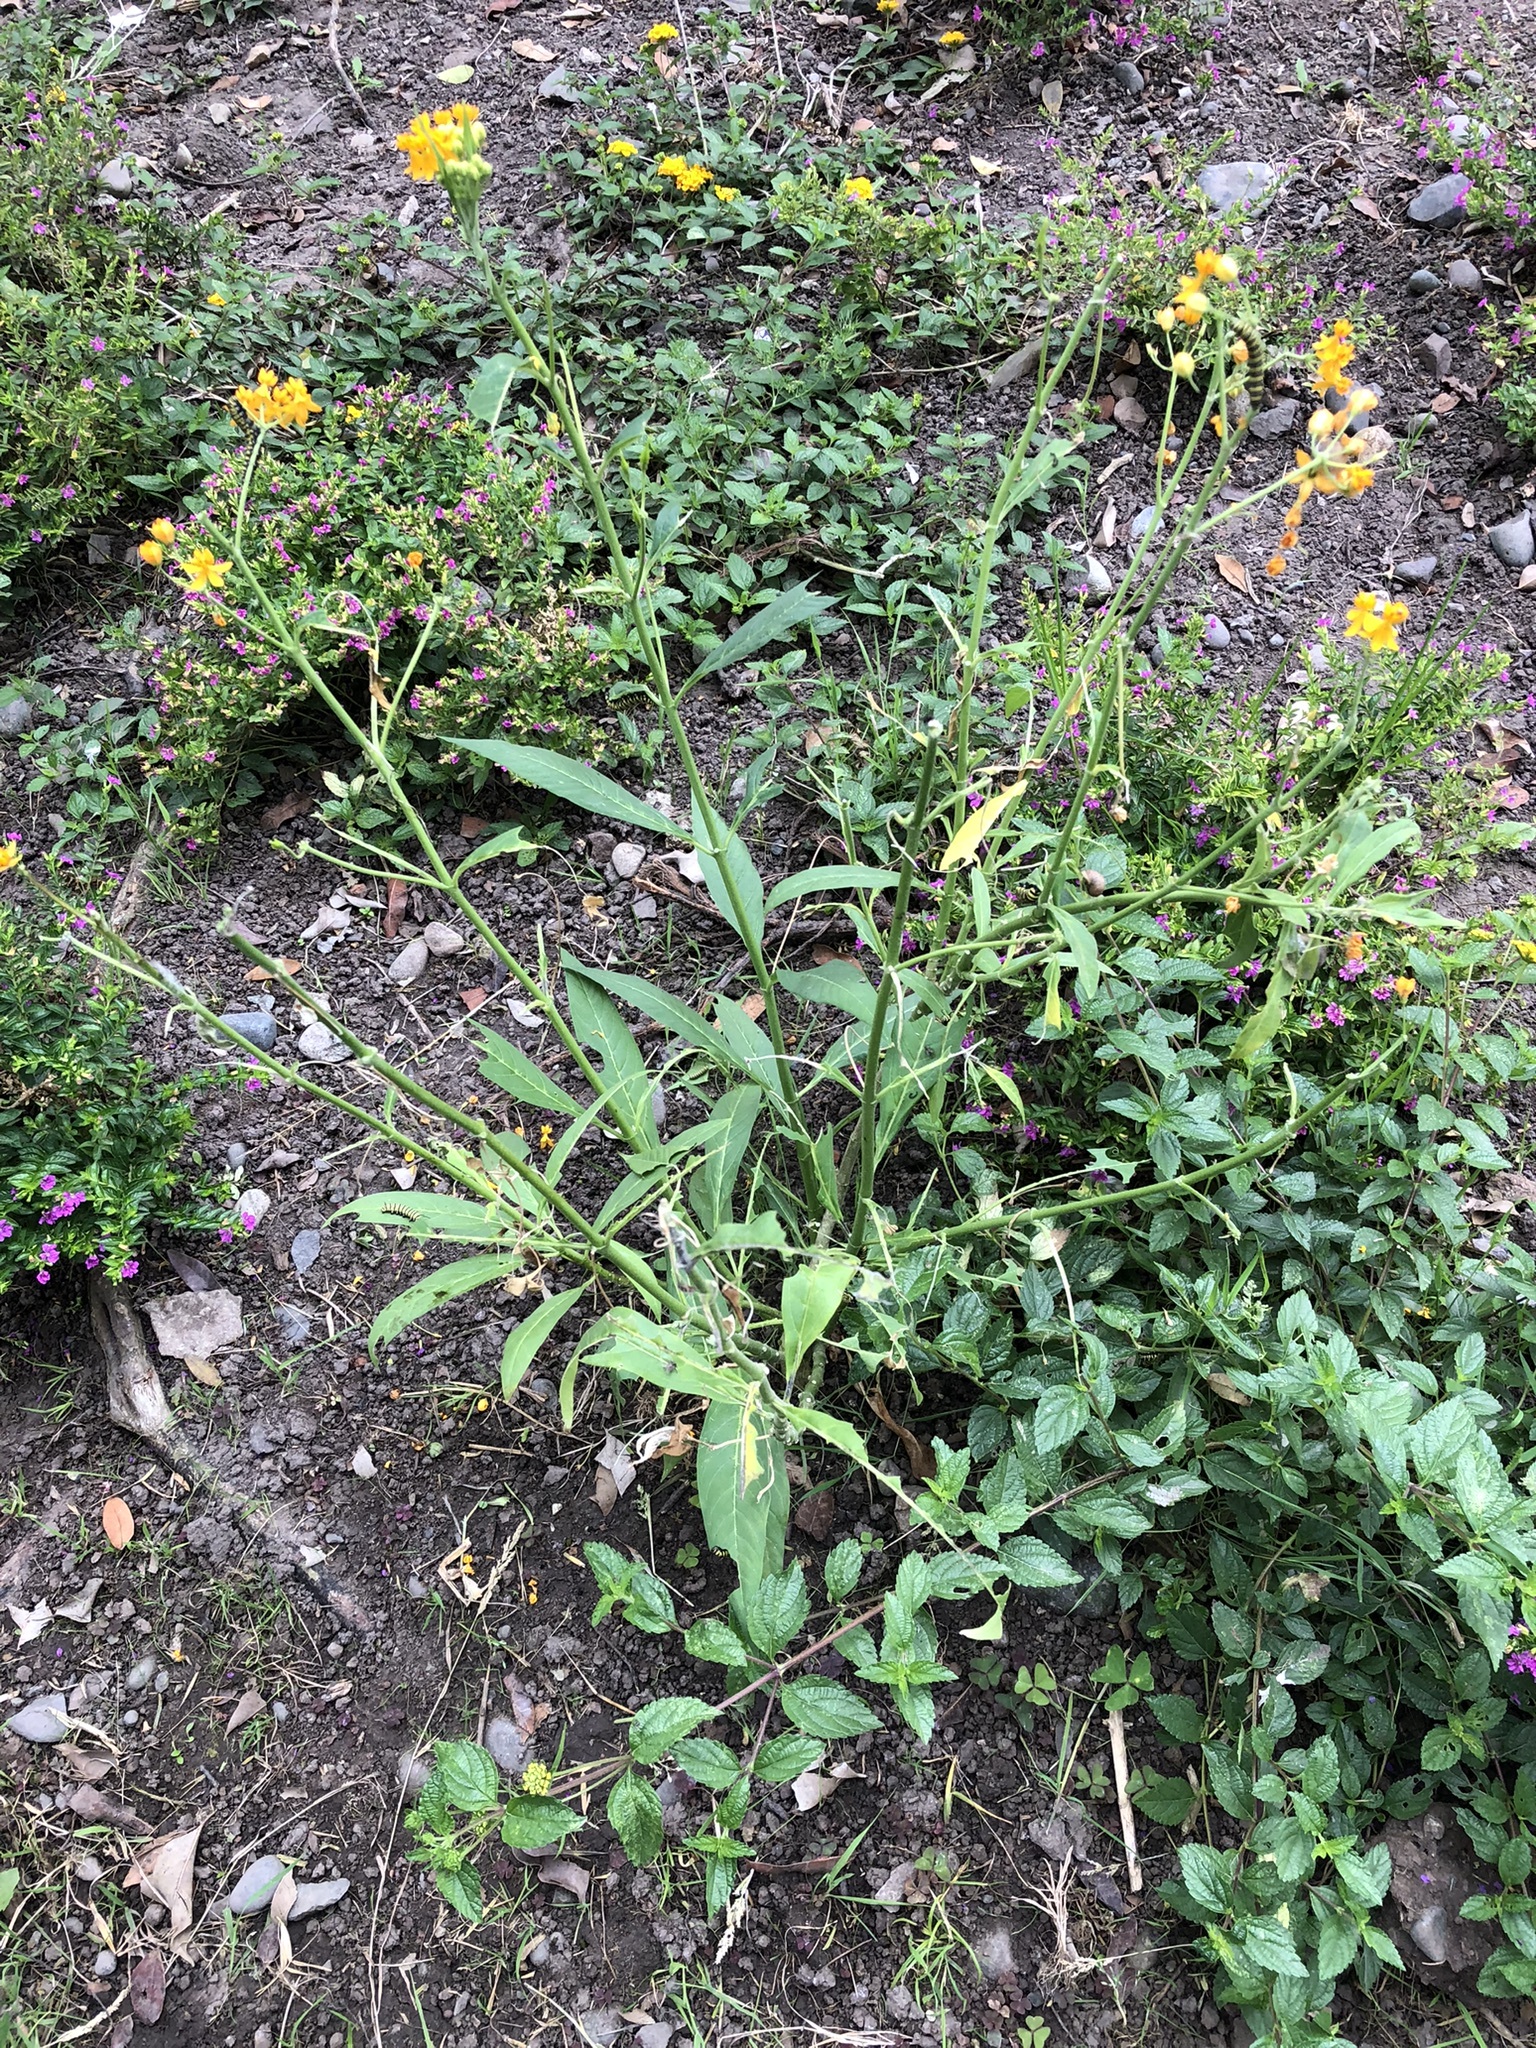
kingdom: Plantae
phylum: Tracheophyta
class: Magnoliopsida
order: Gentianales
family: Apocynaceae
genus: Asclepias
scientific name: Asclepias curassavica
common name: Bloodflower
